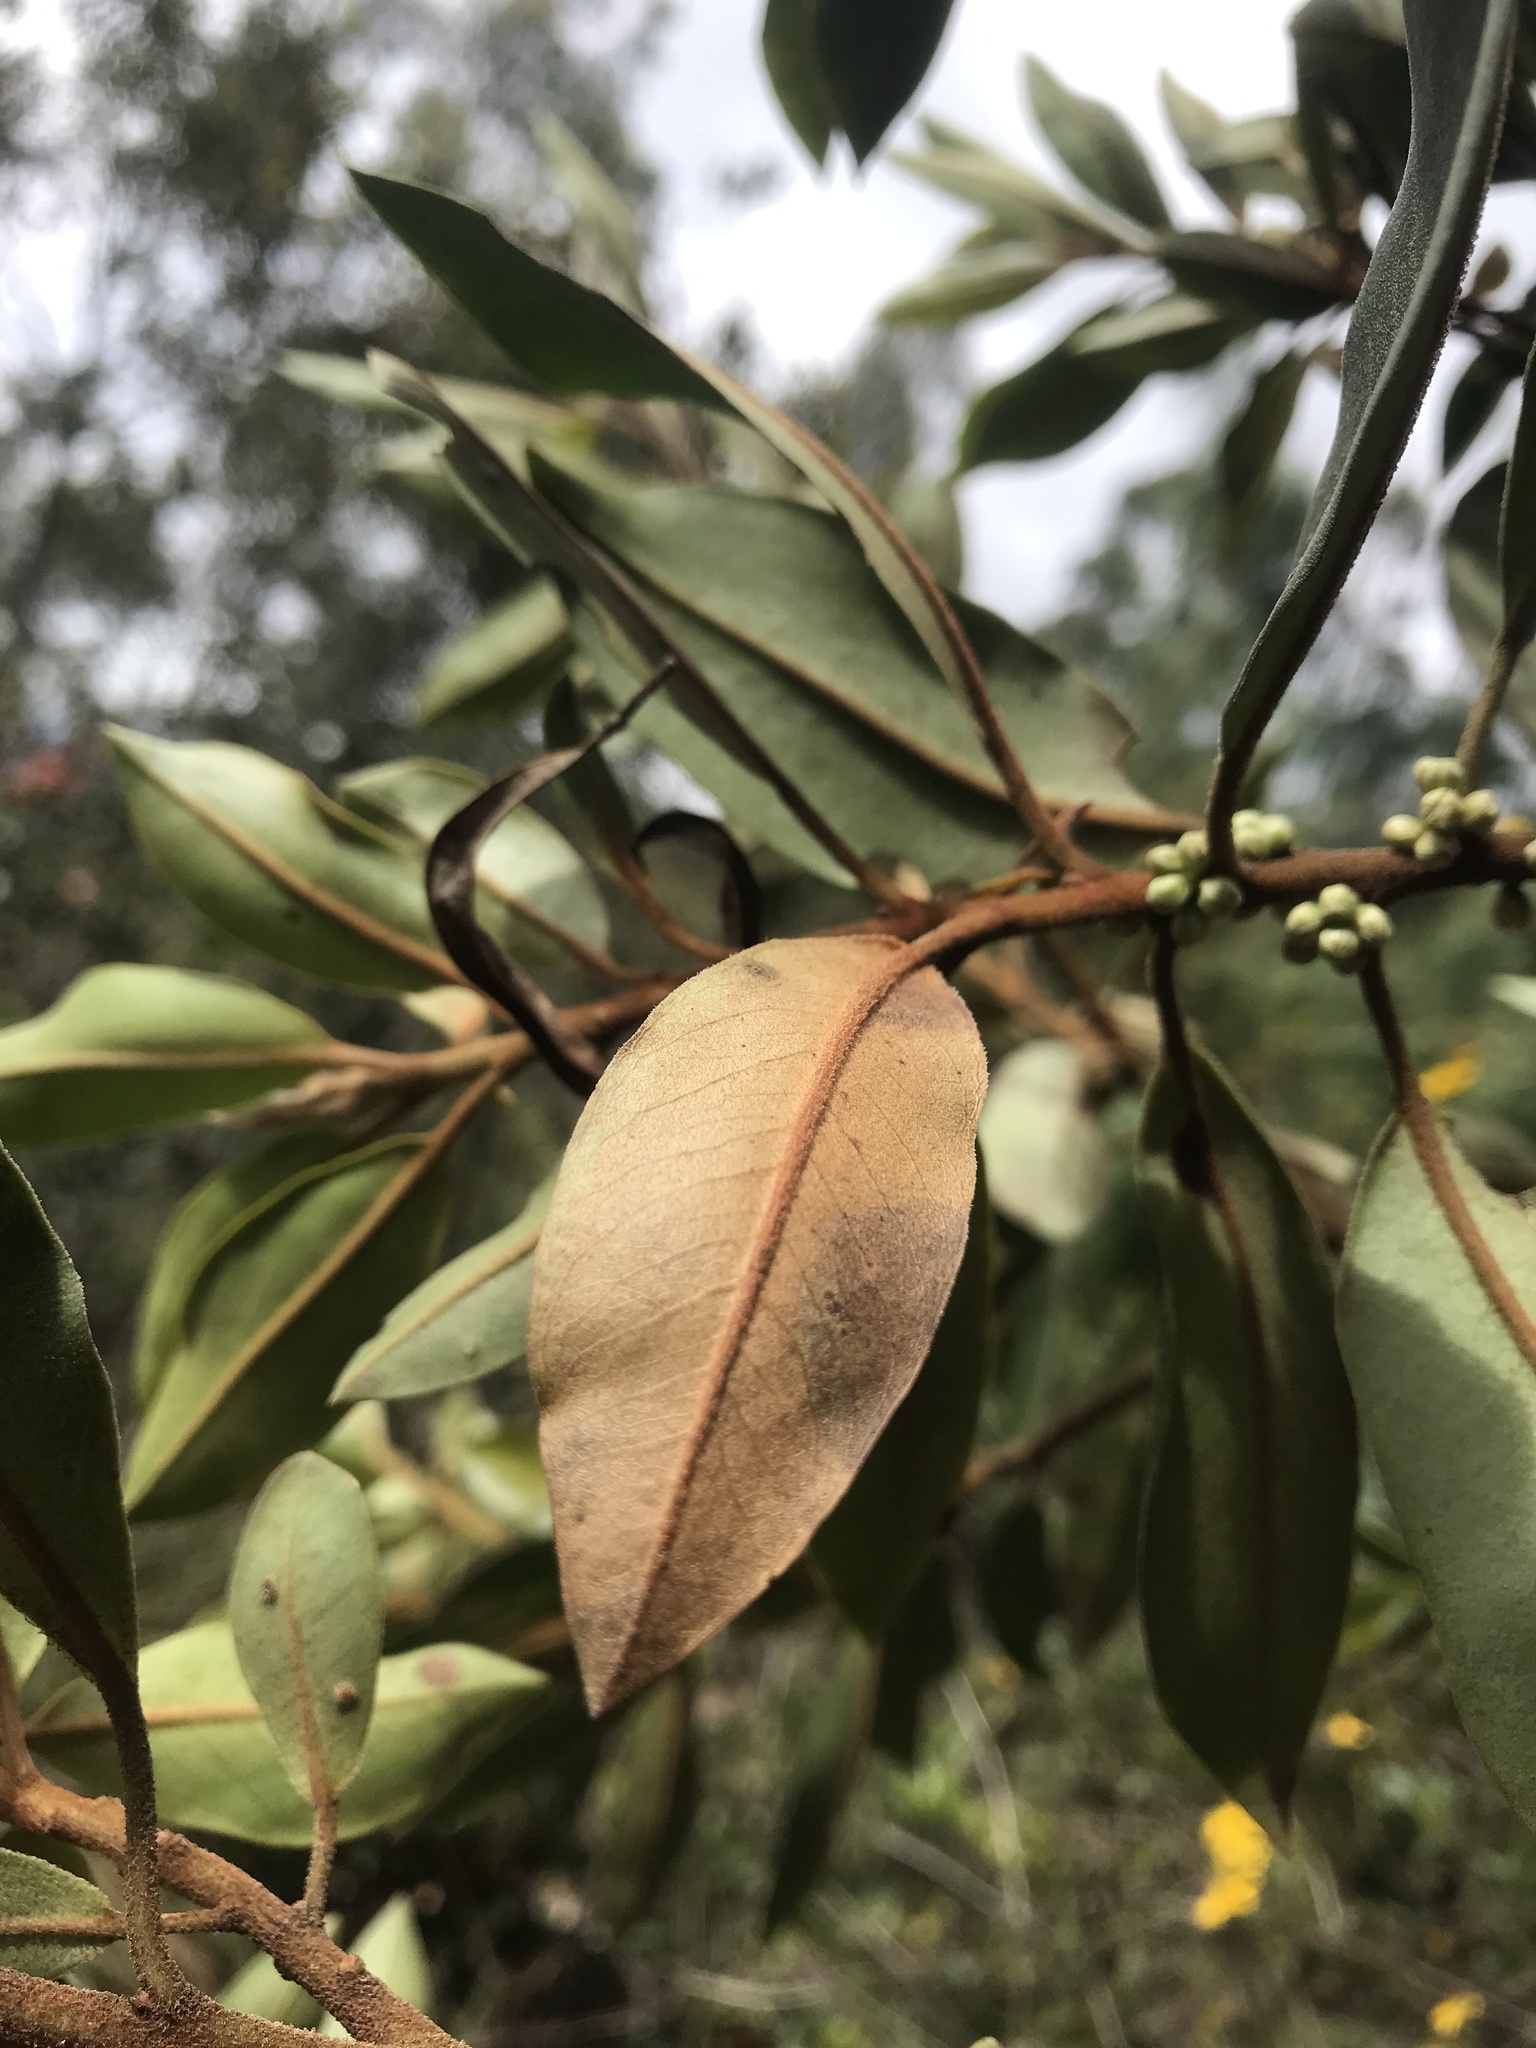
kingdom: Plantae
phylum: Tracheophyta
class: Magnoliopsida
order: Ericales
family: Primulaceae
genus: Myrsine
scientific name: Myrsine coriacea
